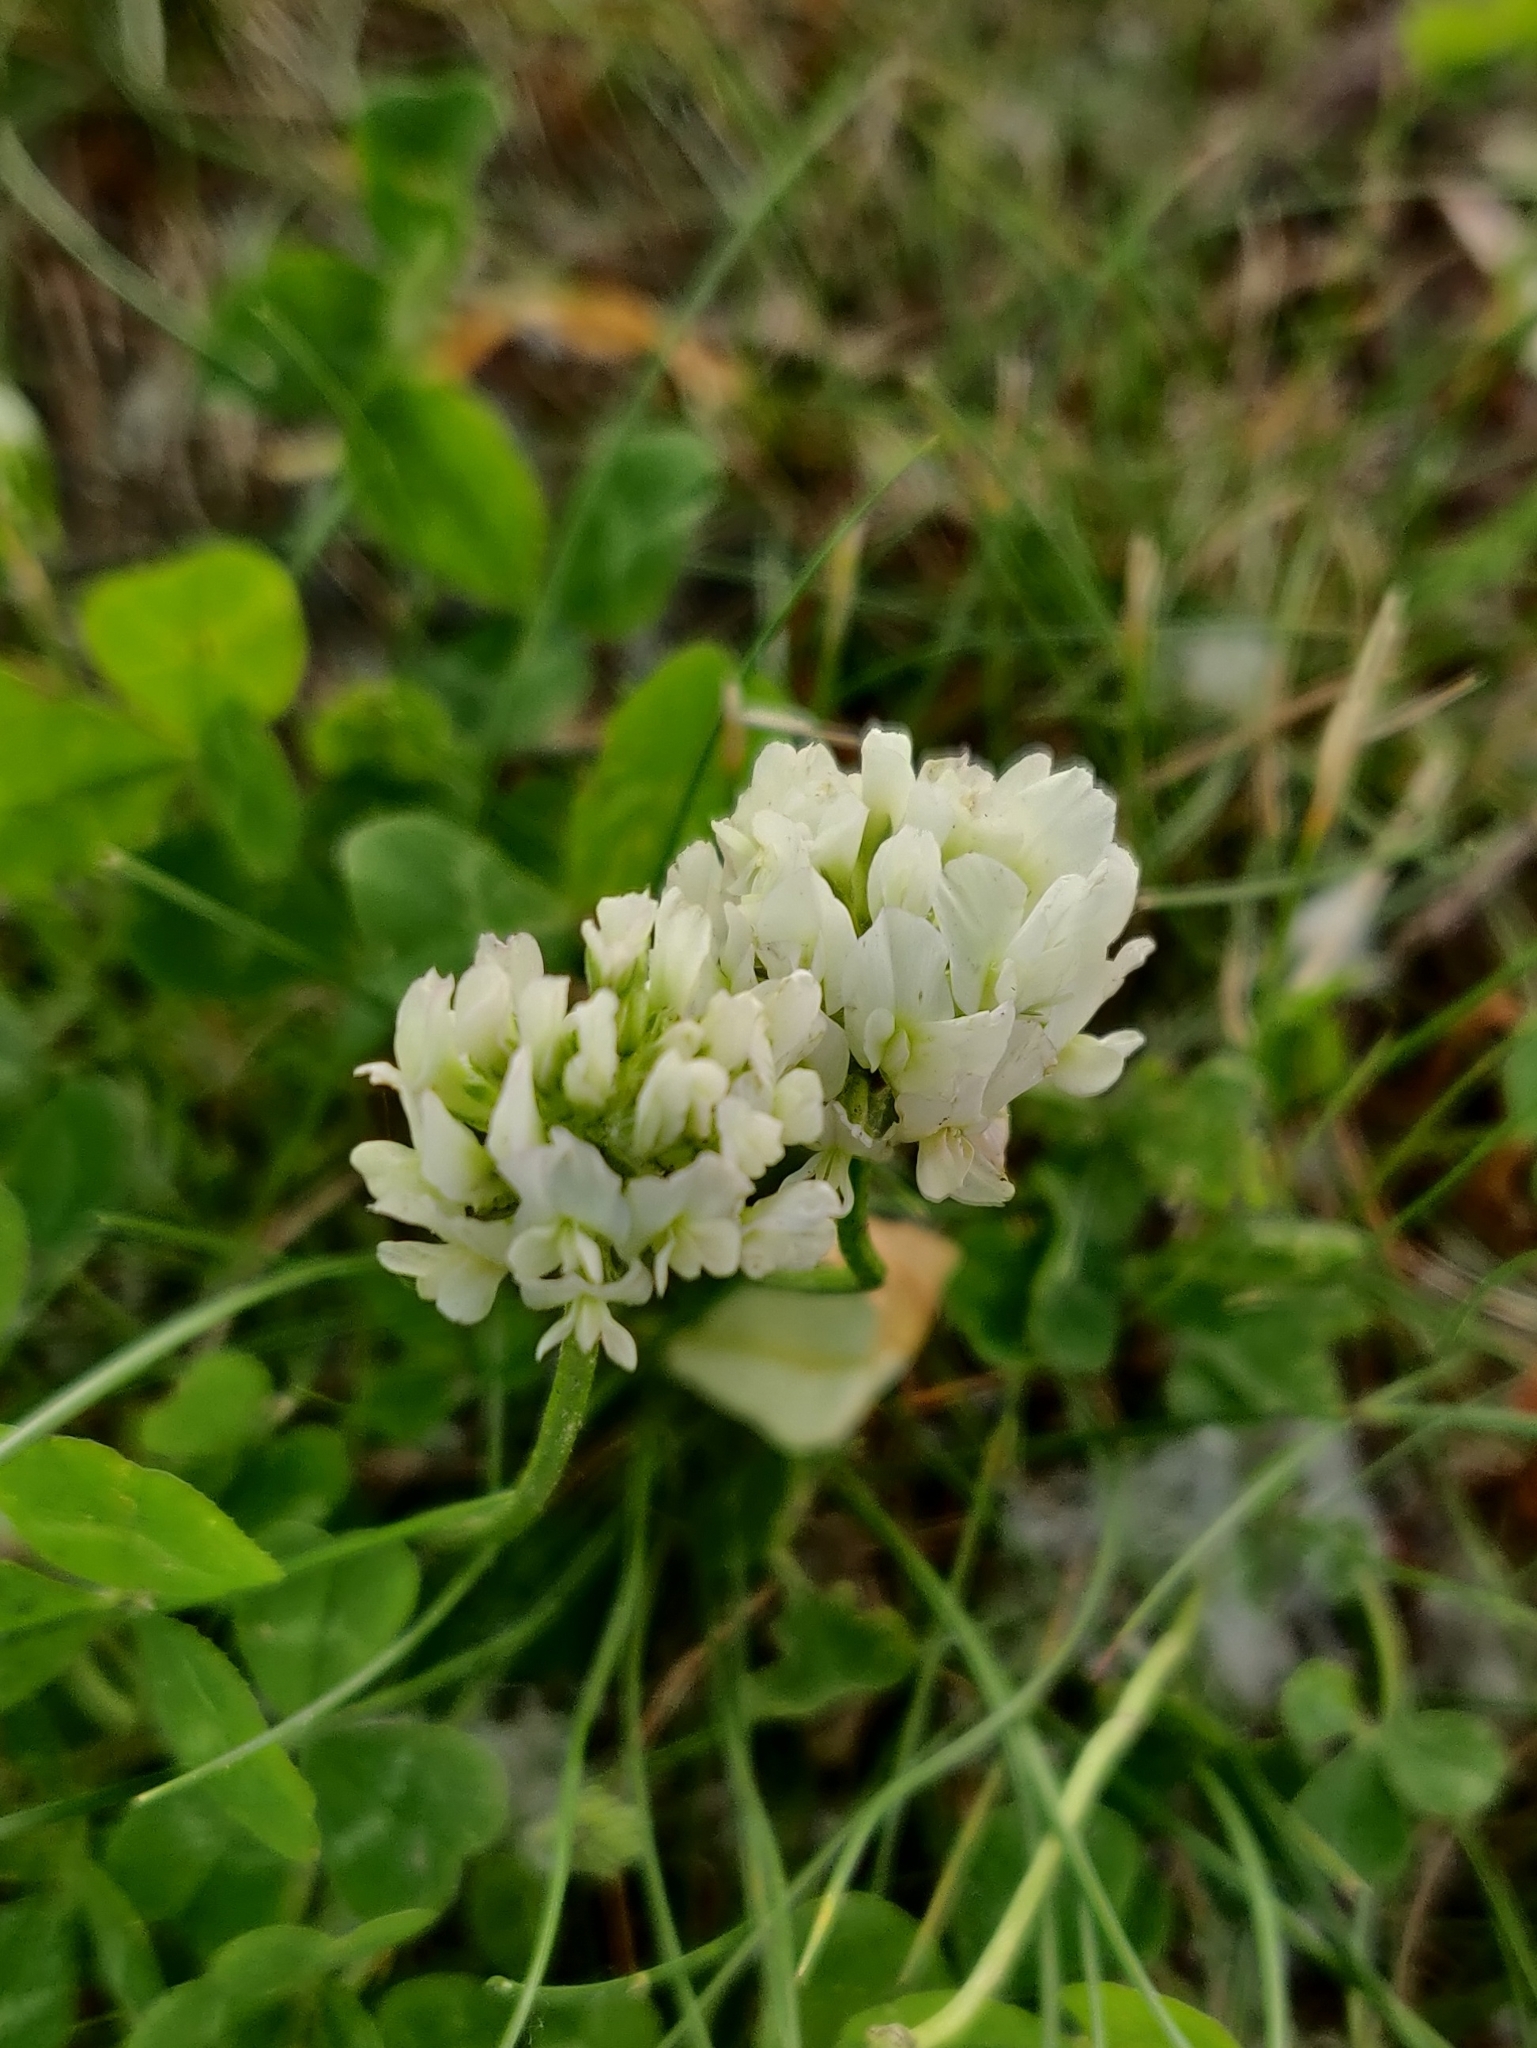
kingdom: Plantae
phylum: Tracheophyta
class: Magnoliopsida
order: Fabales
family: Fabaceae
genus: Trifolium
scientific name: Trifolium repens
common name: White clover
